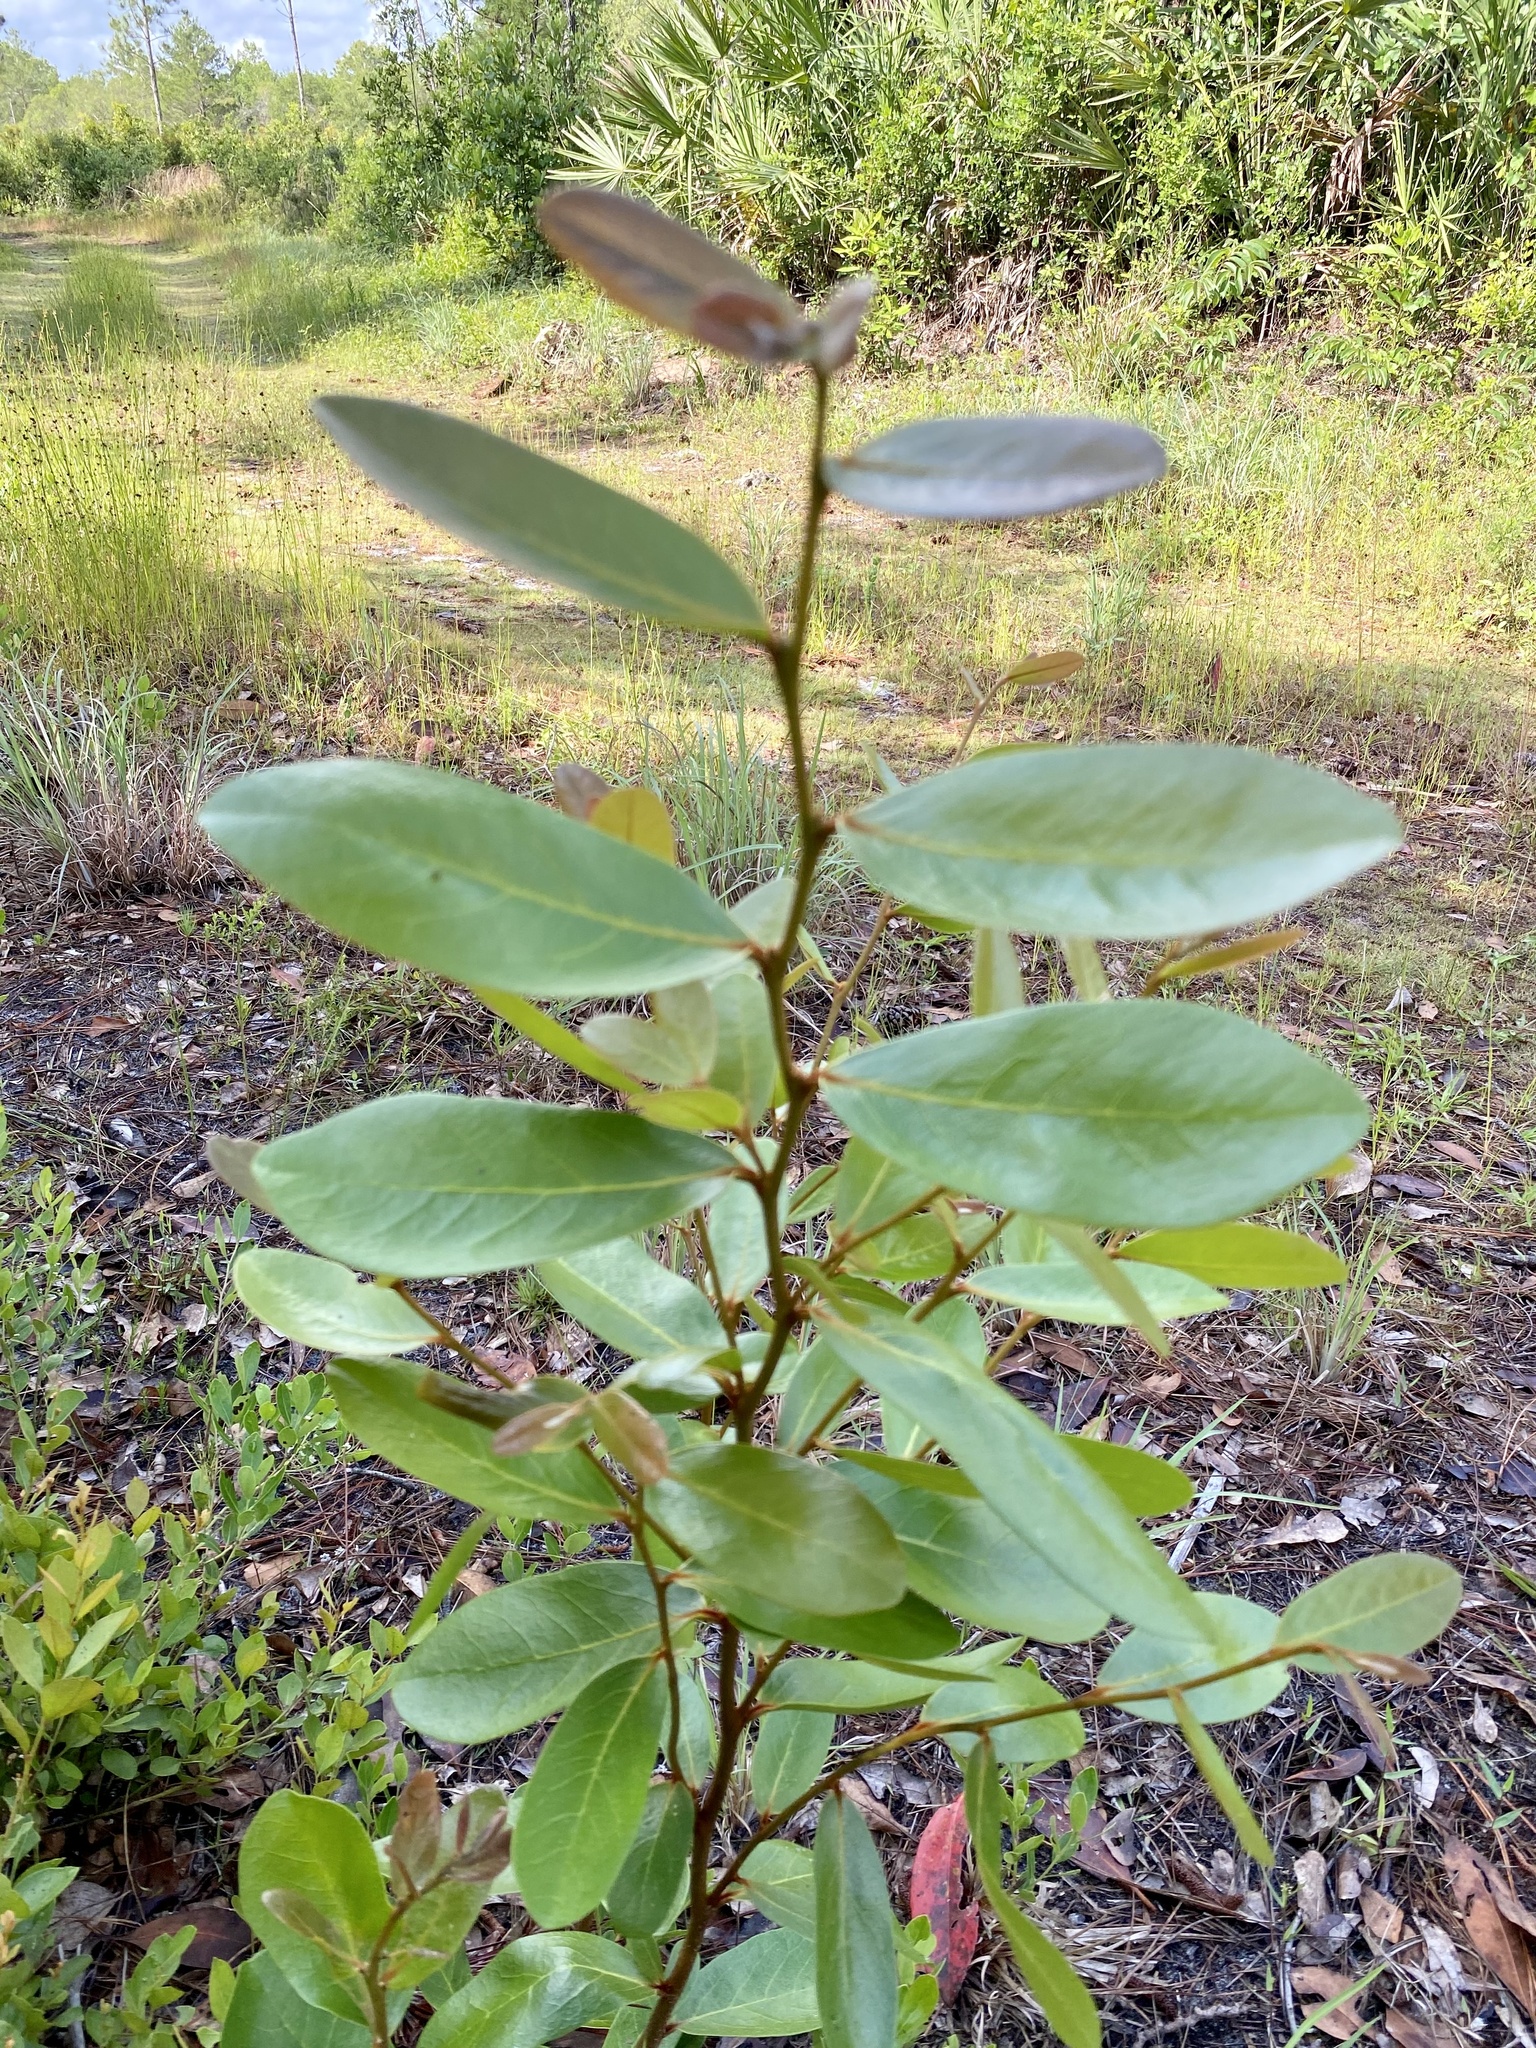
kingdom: Plantae
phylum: Tracheophyta
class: Magnoliopsida
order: Magnoliales
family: Annonaceae
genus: Asimina
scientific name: Asimina obovata
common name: Flag pawpaw
